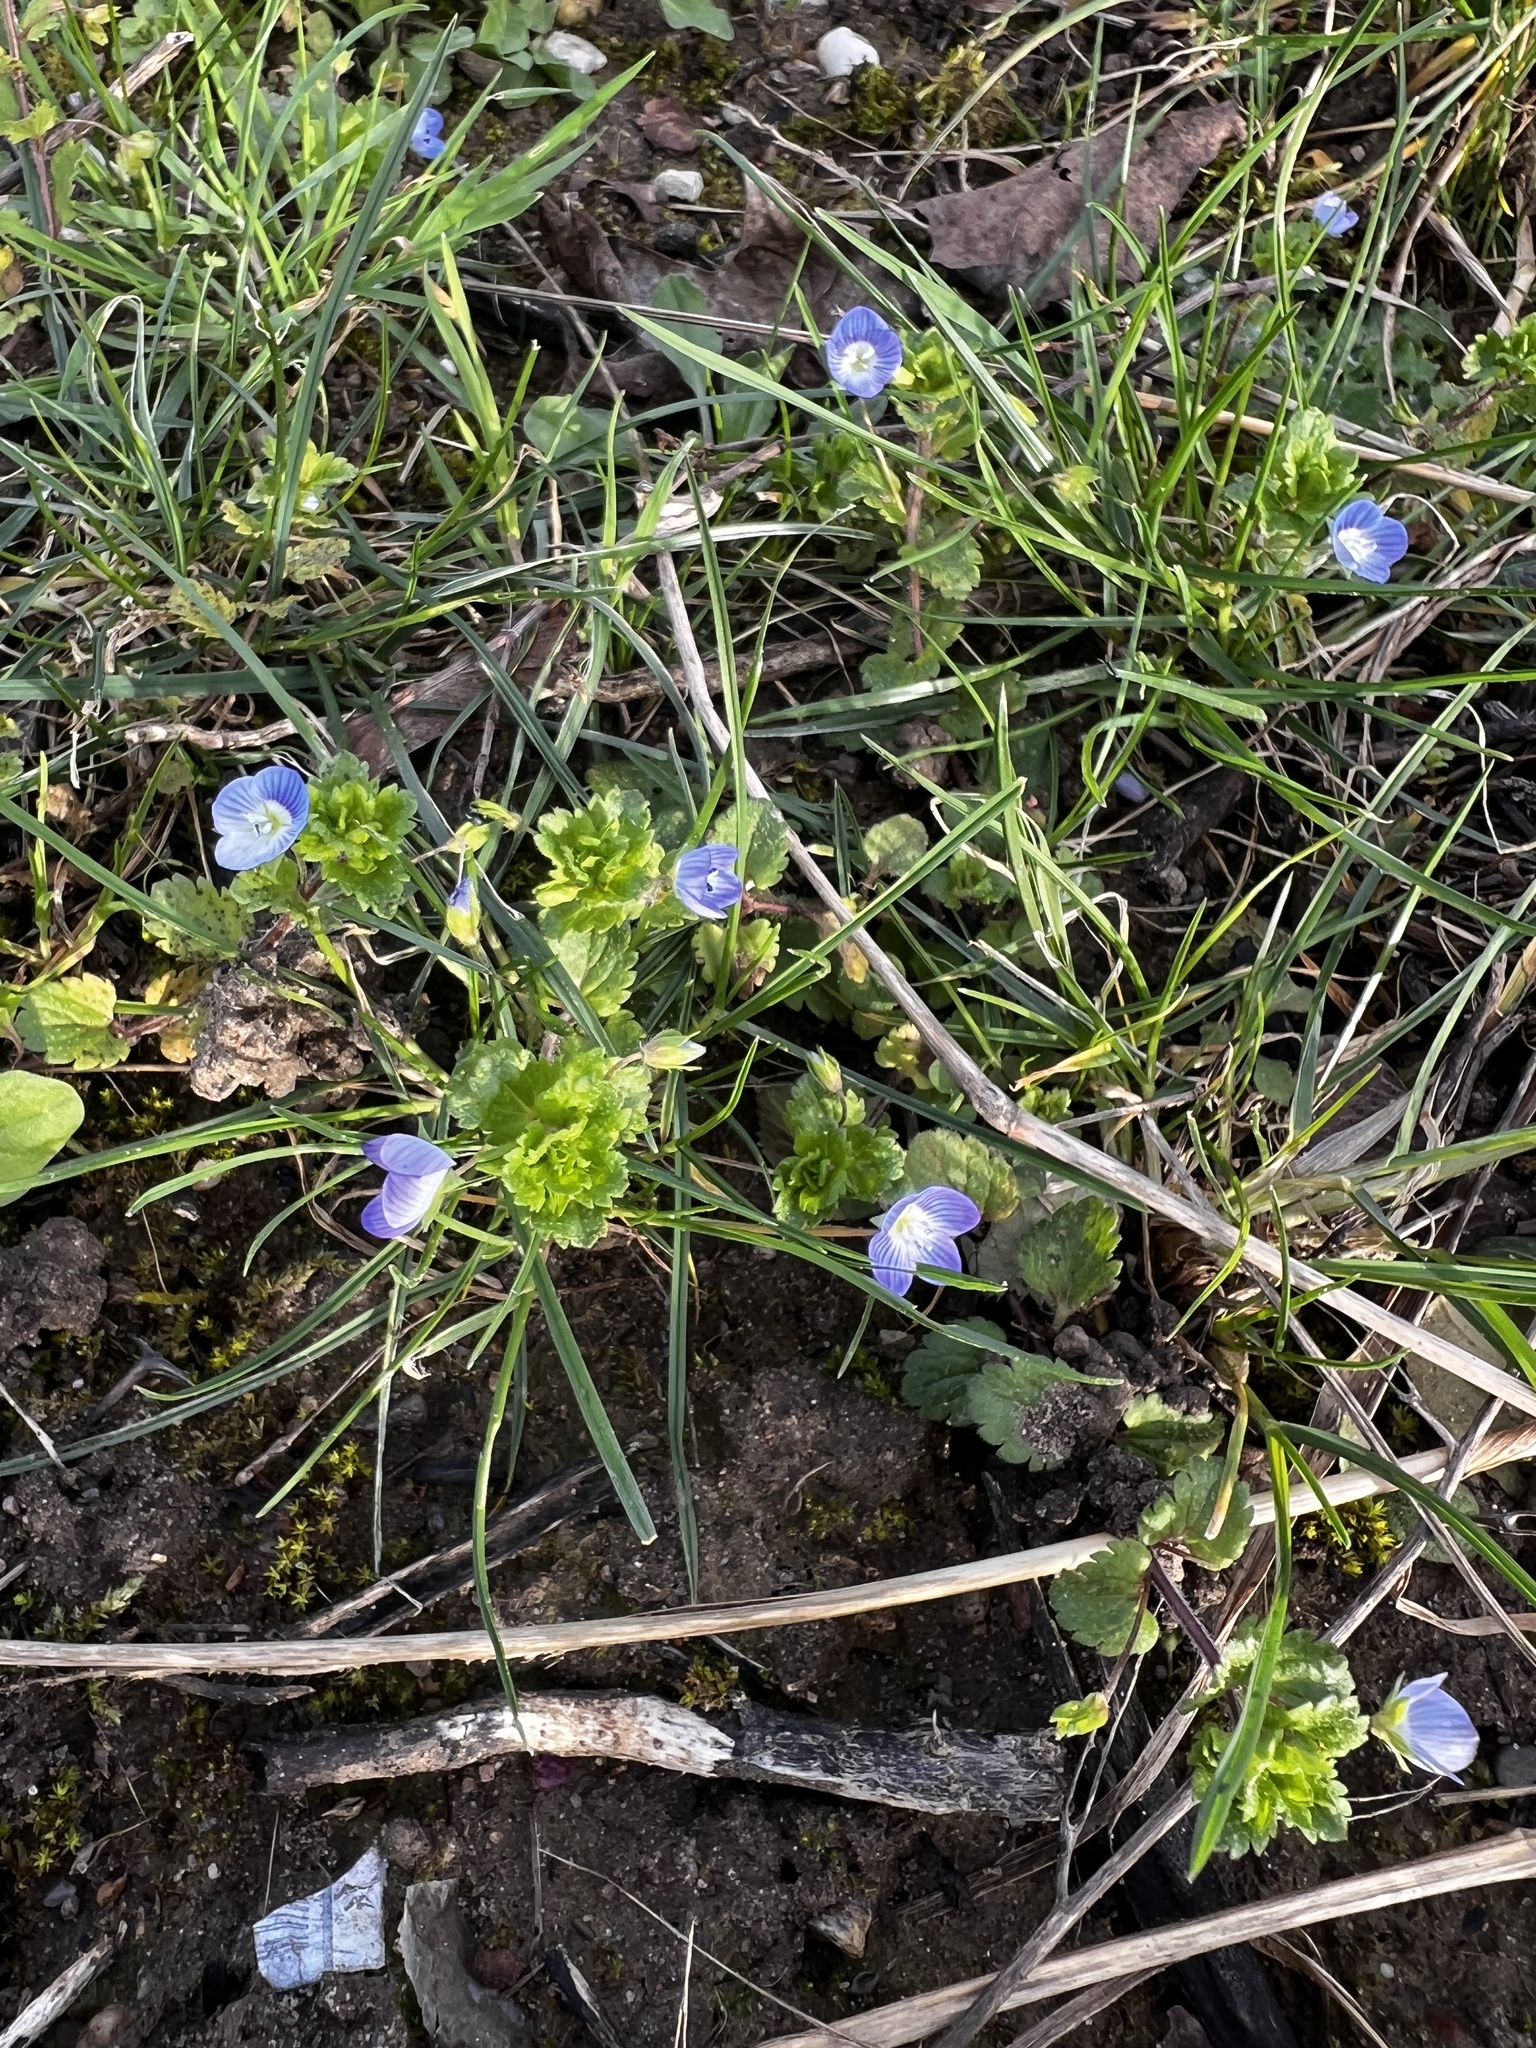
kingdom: Plantae
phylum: Tracheophyta
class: Magnoliopsida
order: Lamiales
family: Plantaginaceae
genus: Veronica
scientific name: Veronica persica
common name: Common field-speedwell
